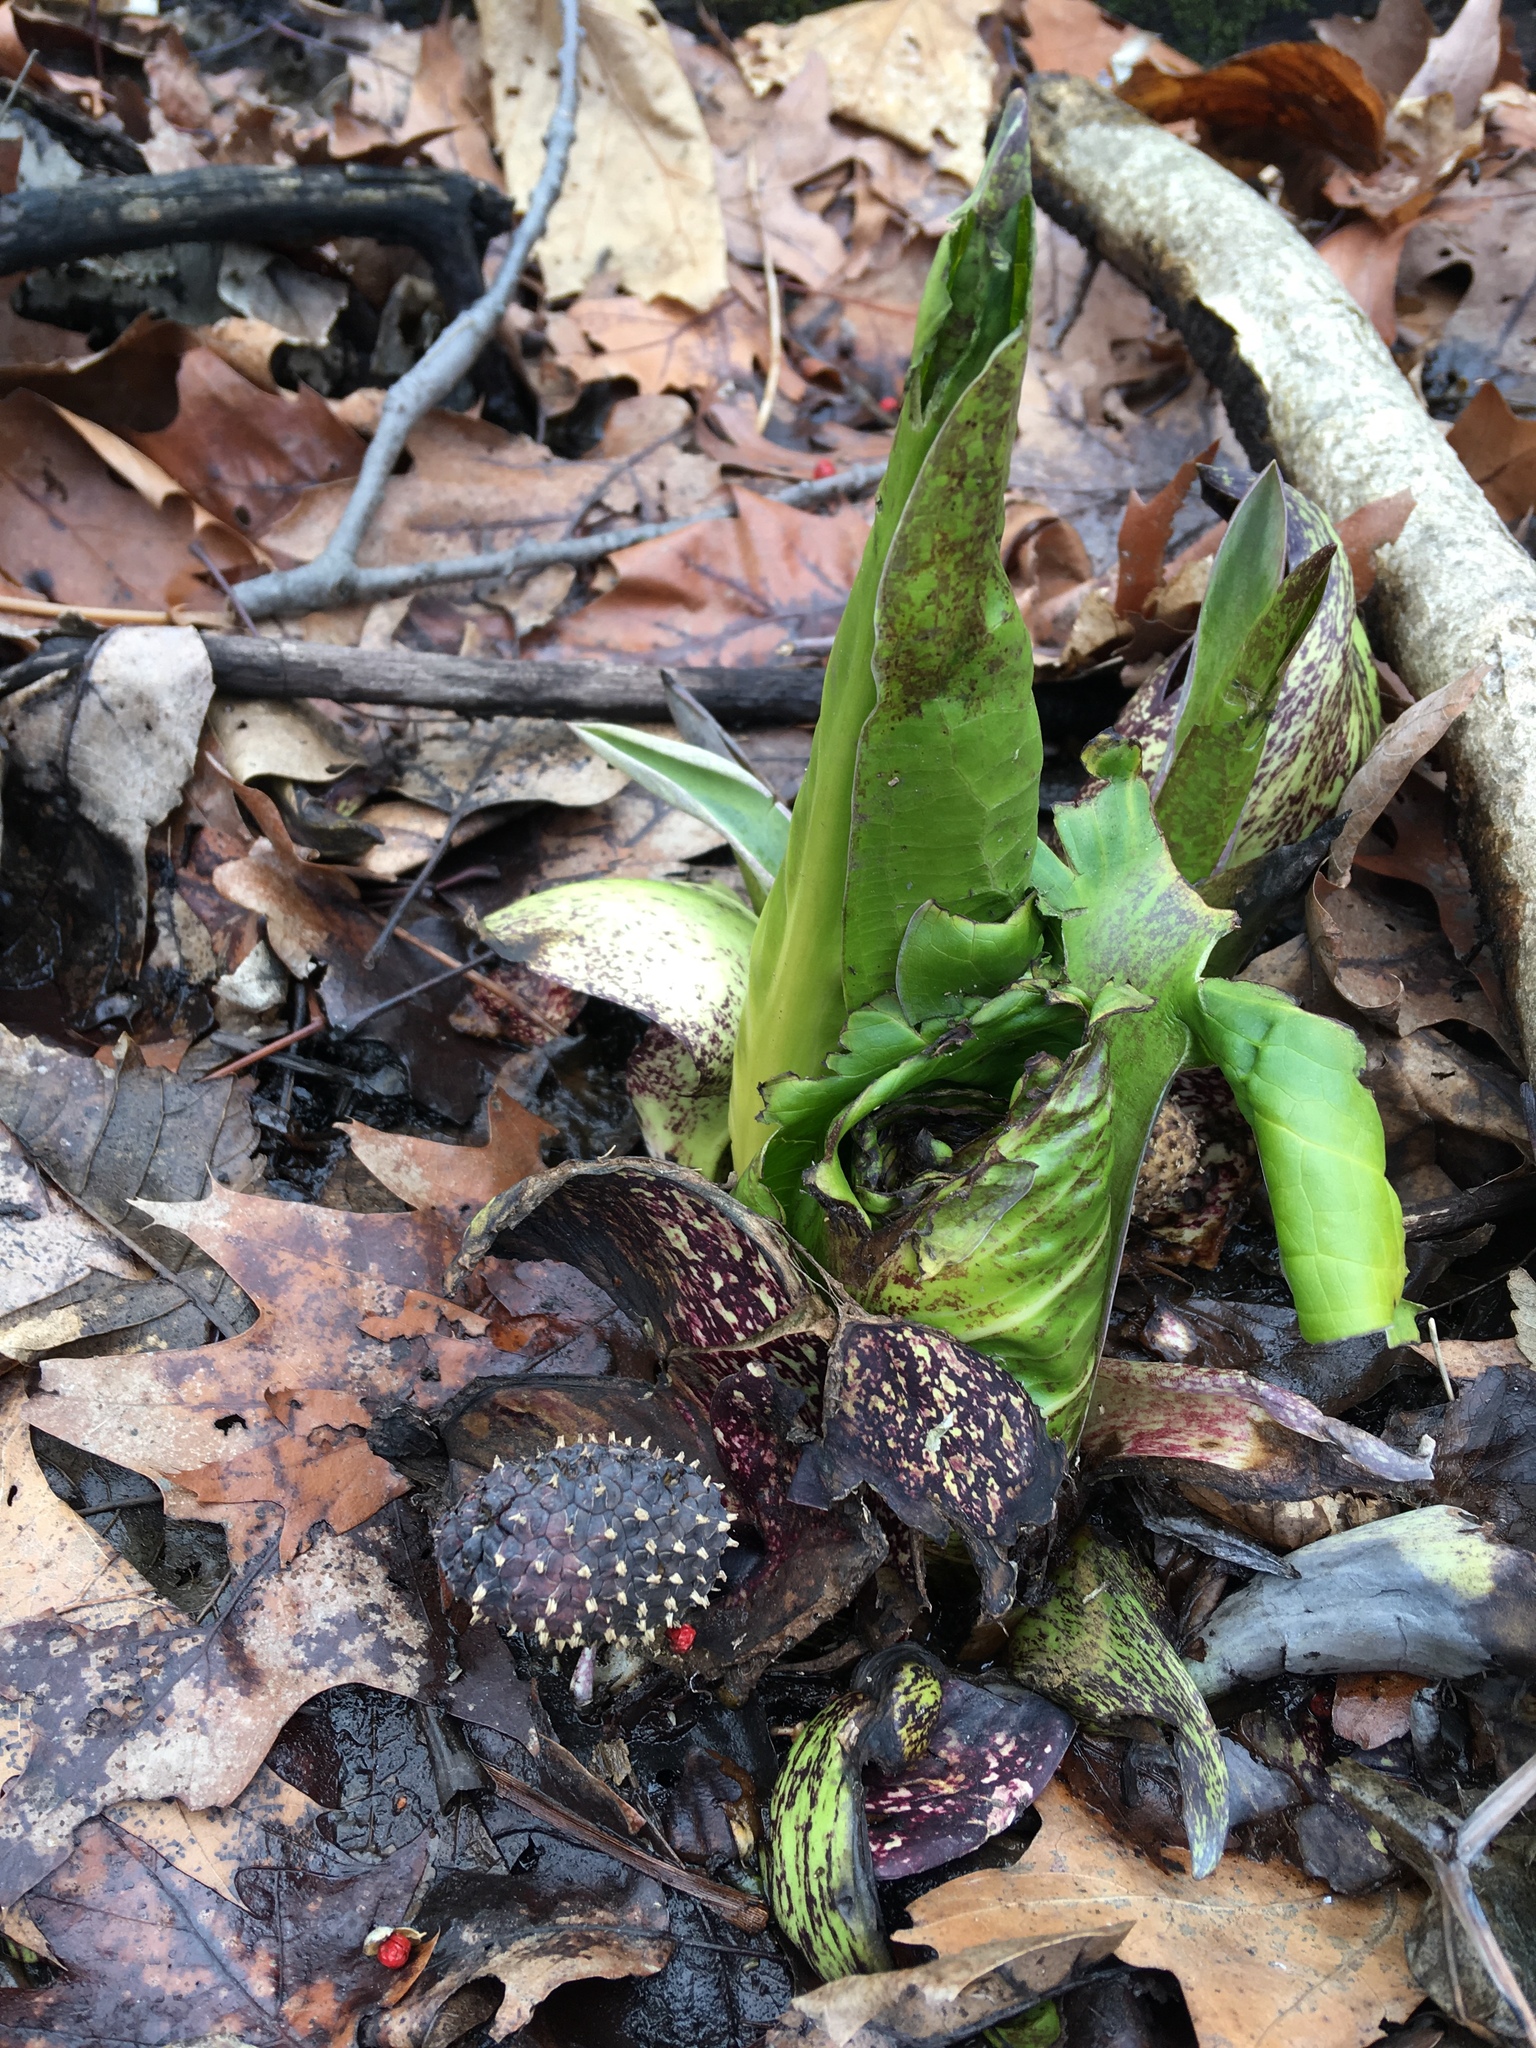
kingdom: Plantae
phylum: Tracheophyta
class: Liliopsida
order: Alismatales
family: Araceae
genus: Symplocarpus
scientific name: Symplocarpus foetidus
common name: Eastern skunk cabbage
